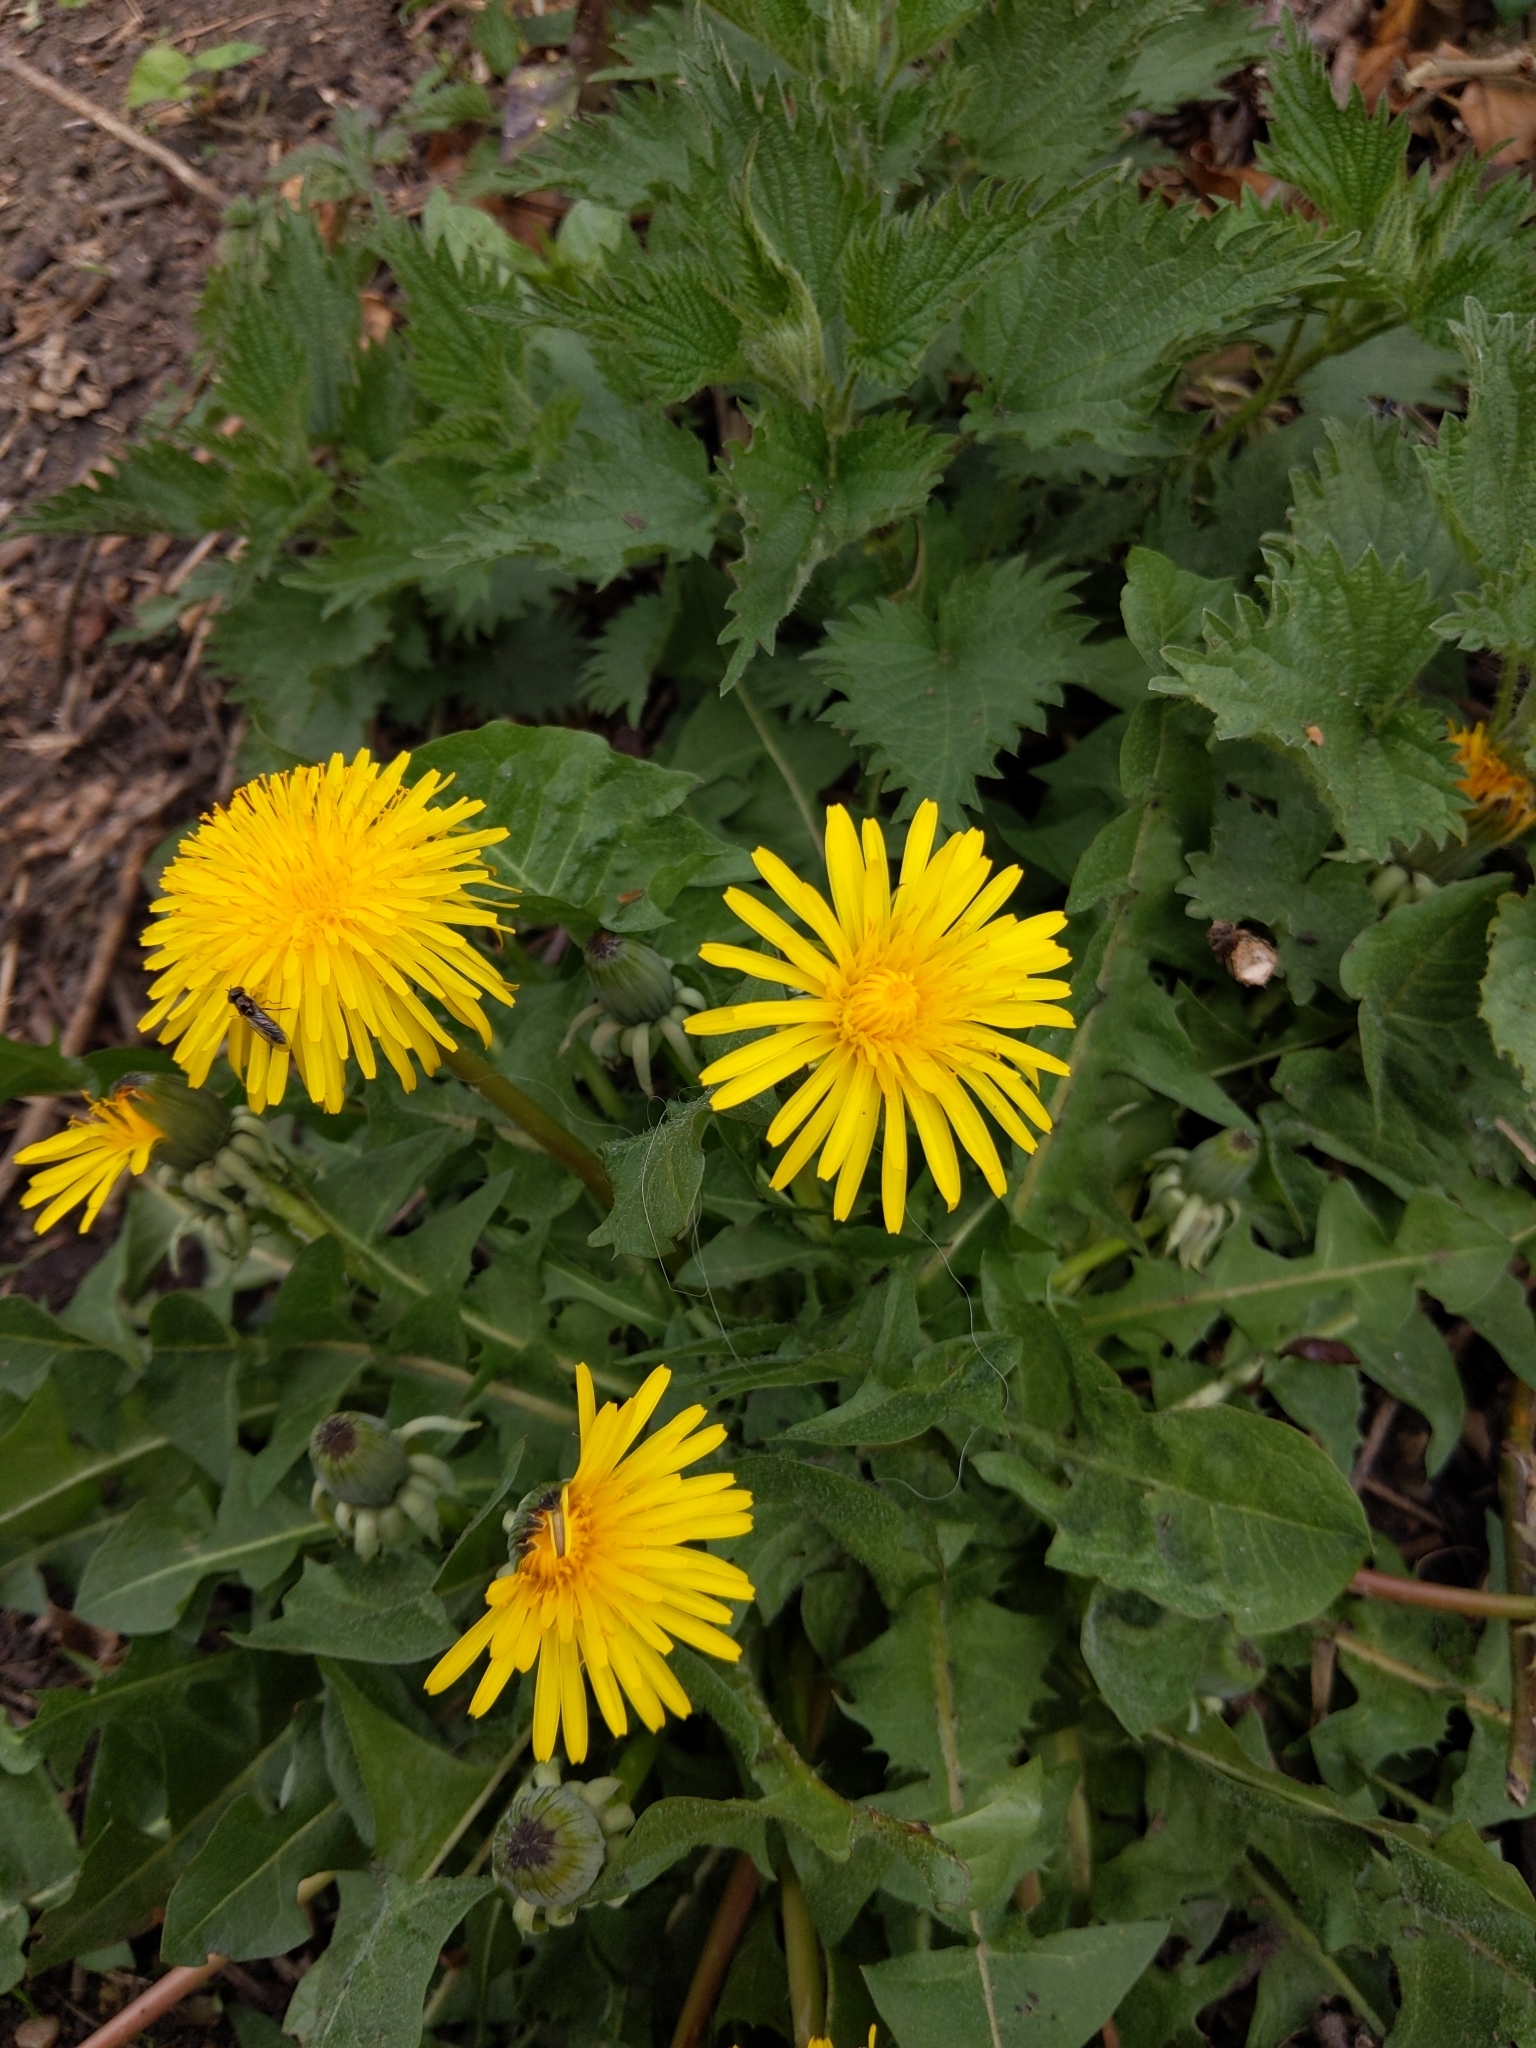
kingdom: Plantae
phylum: Tracheophyta
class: Magnoliopsida
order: Asterales
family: Asteraceae
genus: Taraxacum
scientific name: Taraxacum officinale
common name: Common dandelion
